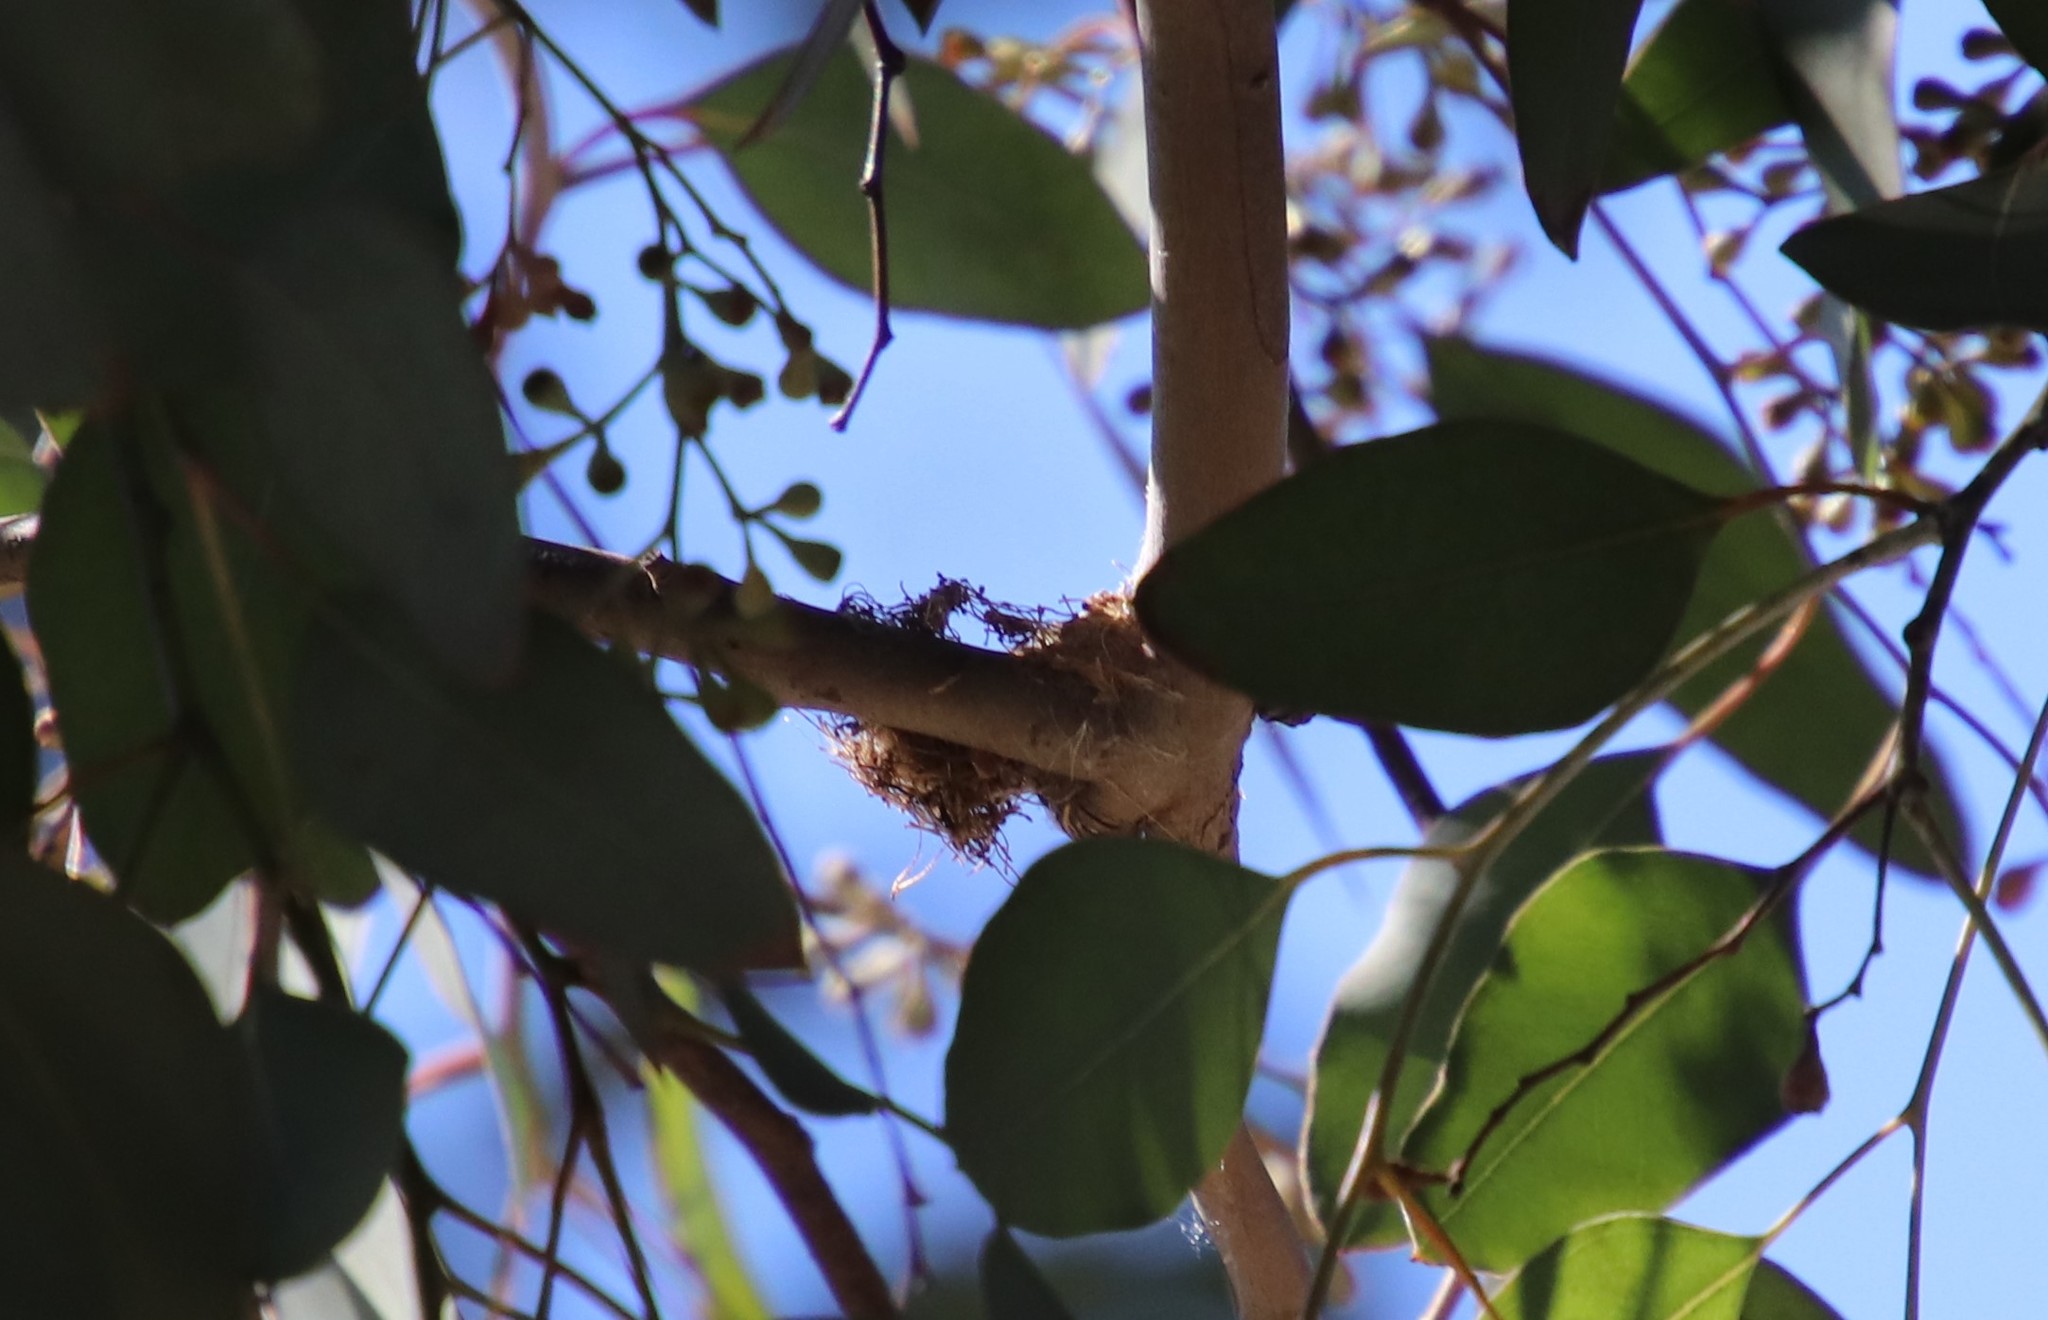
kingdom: Animalia
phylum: Chordata
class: Aves
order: Apodiformes
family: Trochilidae
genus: Calypte
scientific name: Calypte anna
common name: Anna's hummingbird
